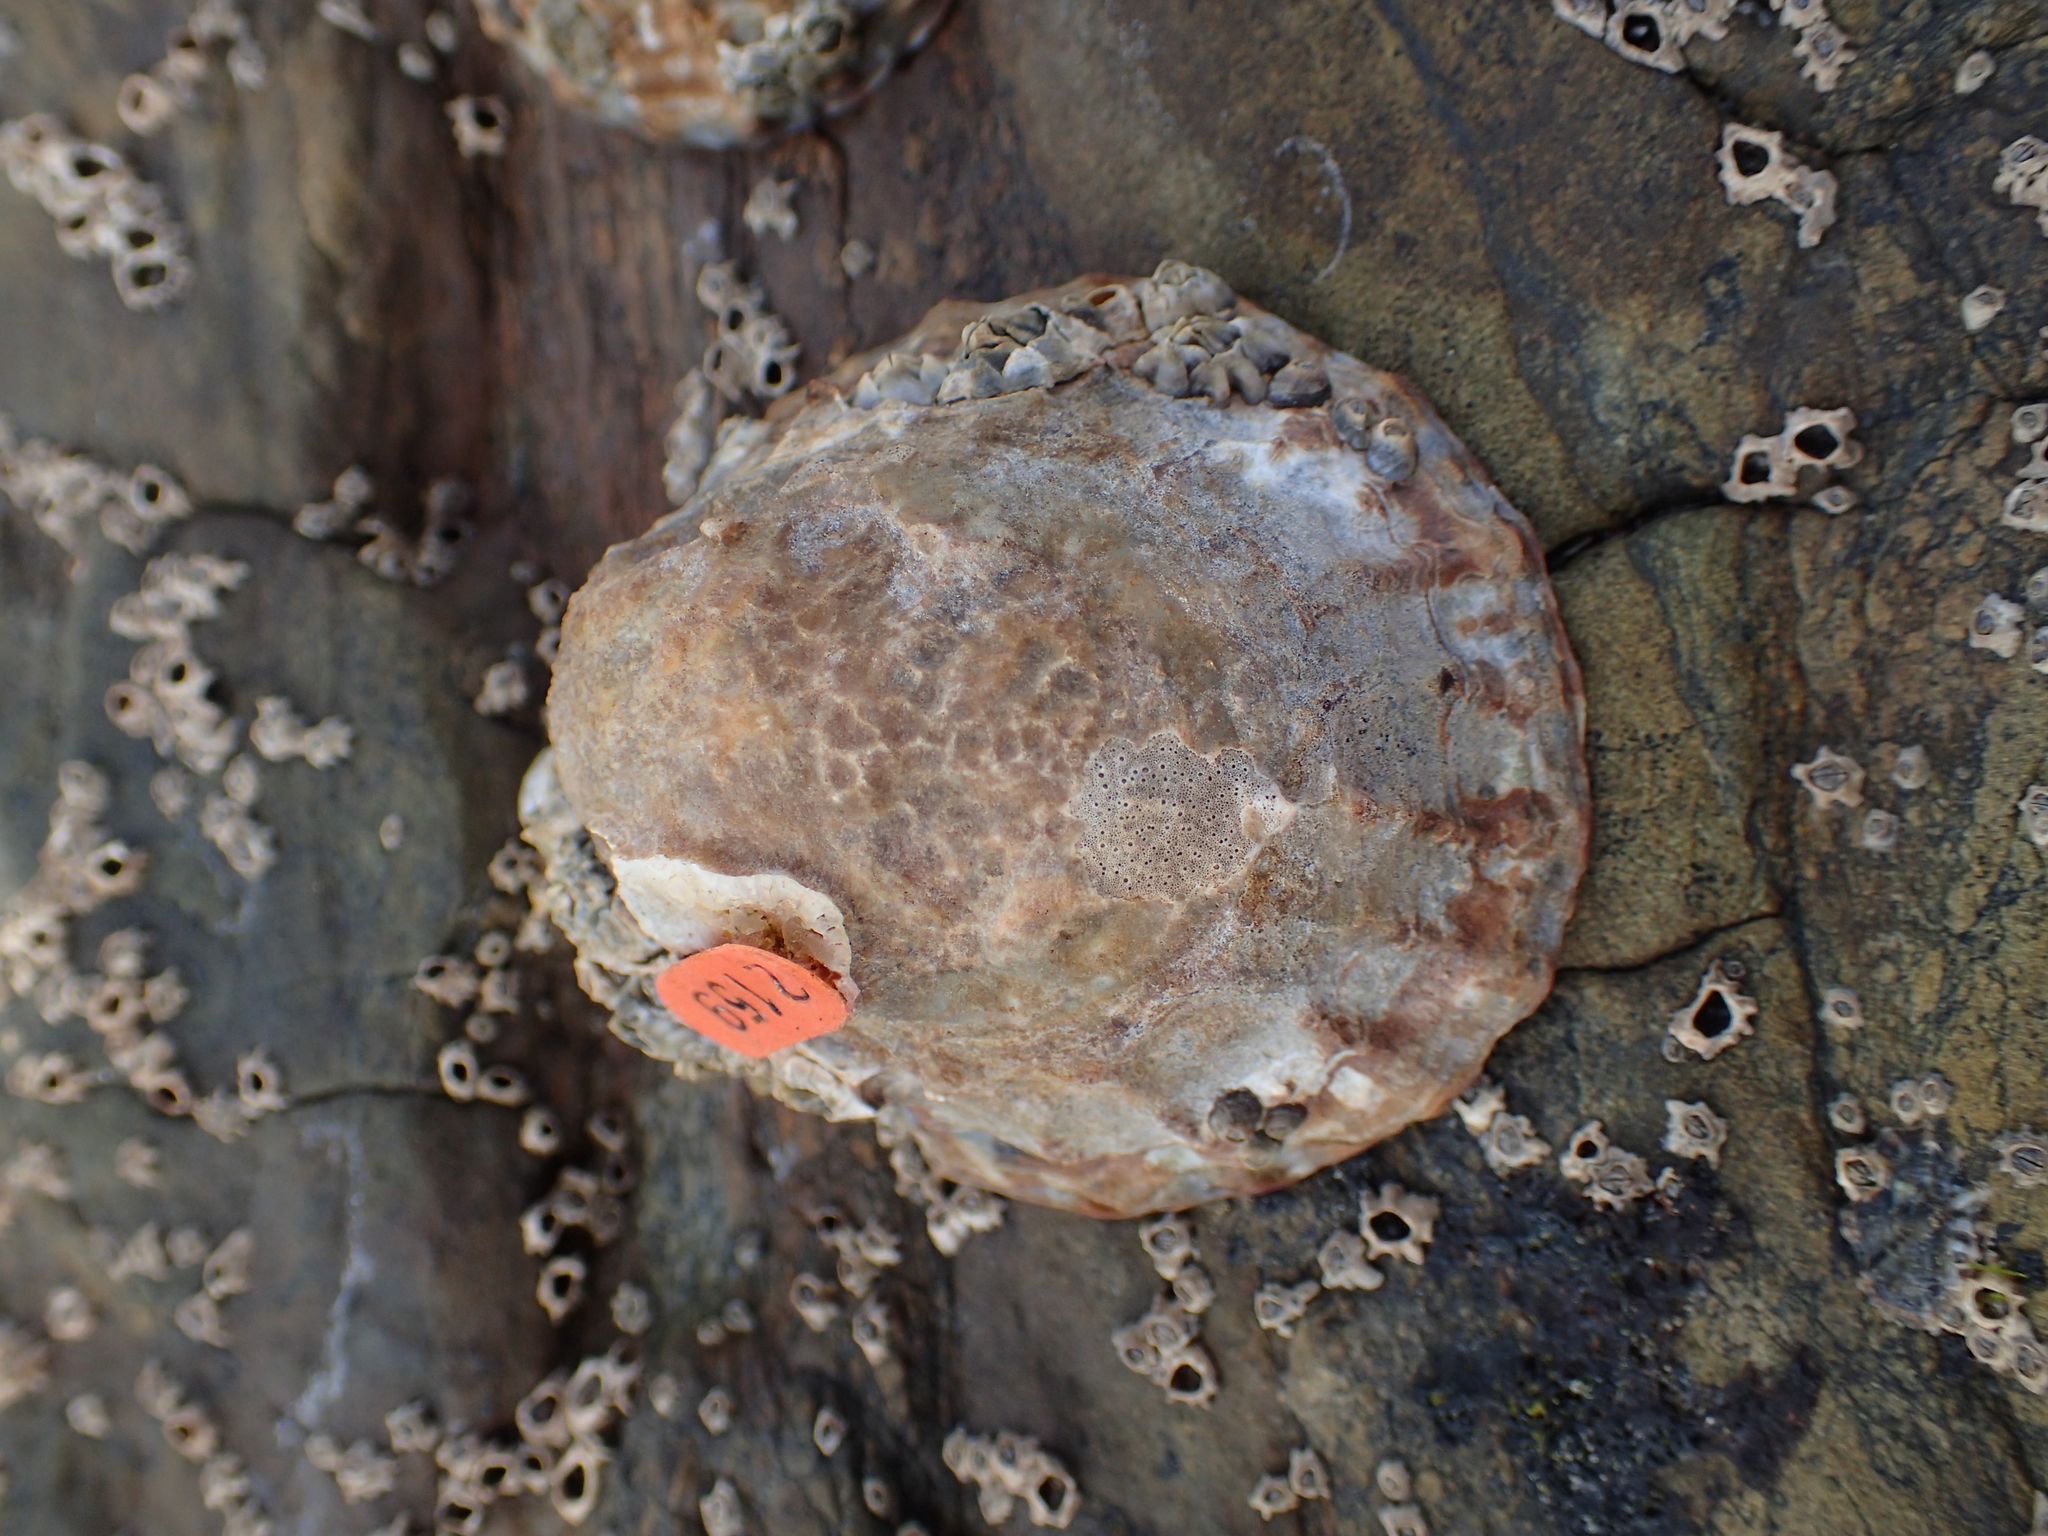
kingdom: Animalia
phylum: Mollusca
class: Gastropoda
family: Nacellidae
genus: Cellana
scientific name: Cellana denticulata
